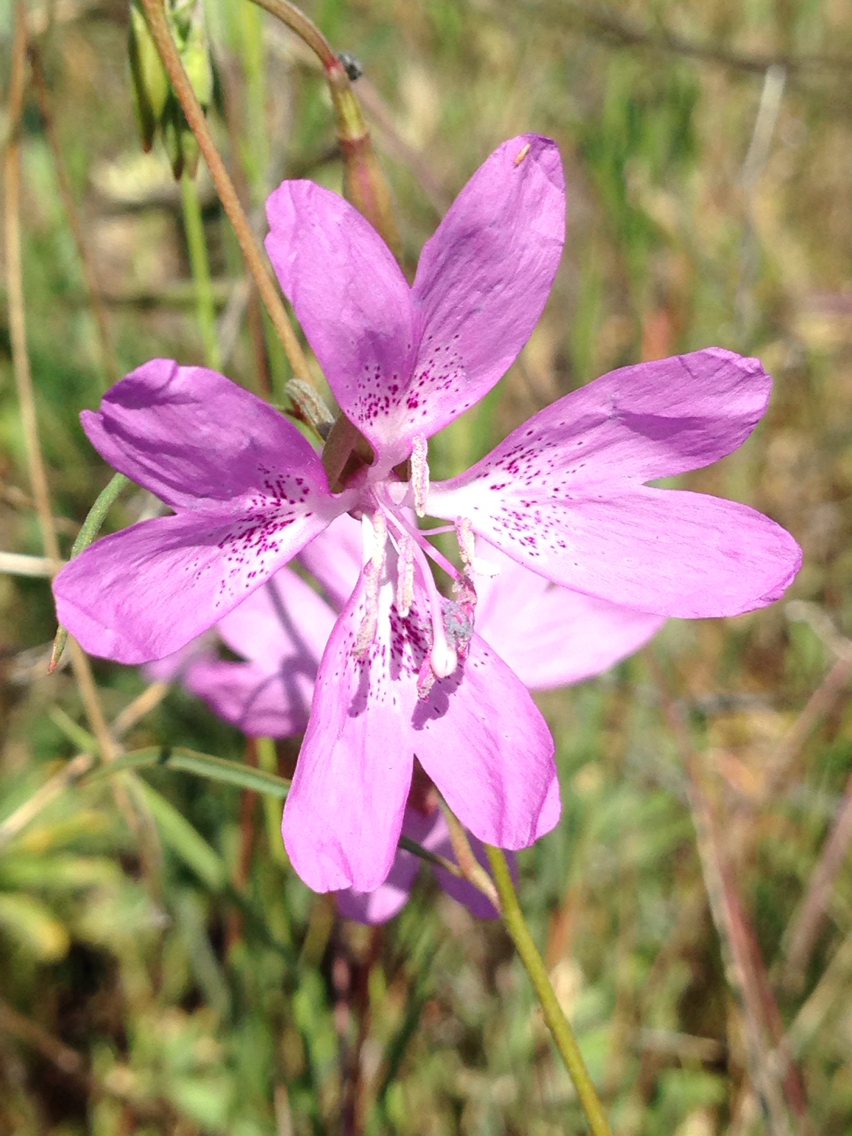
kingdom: Plantae
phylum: Tracheophyta
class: Magnoliopsida
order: Myrtales
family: Onagraceae
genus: Clarkia
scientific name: Clarkia biloba
